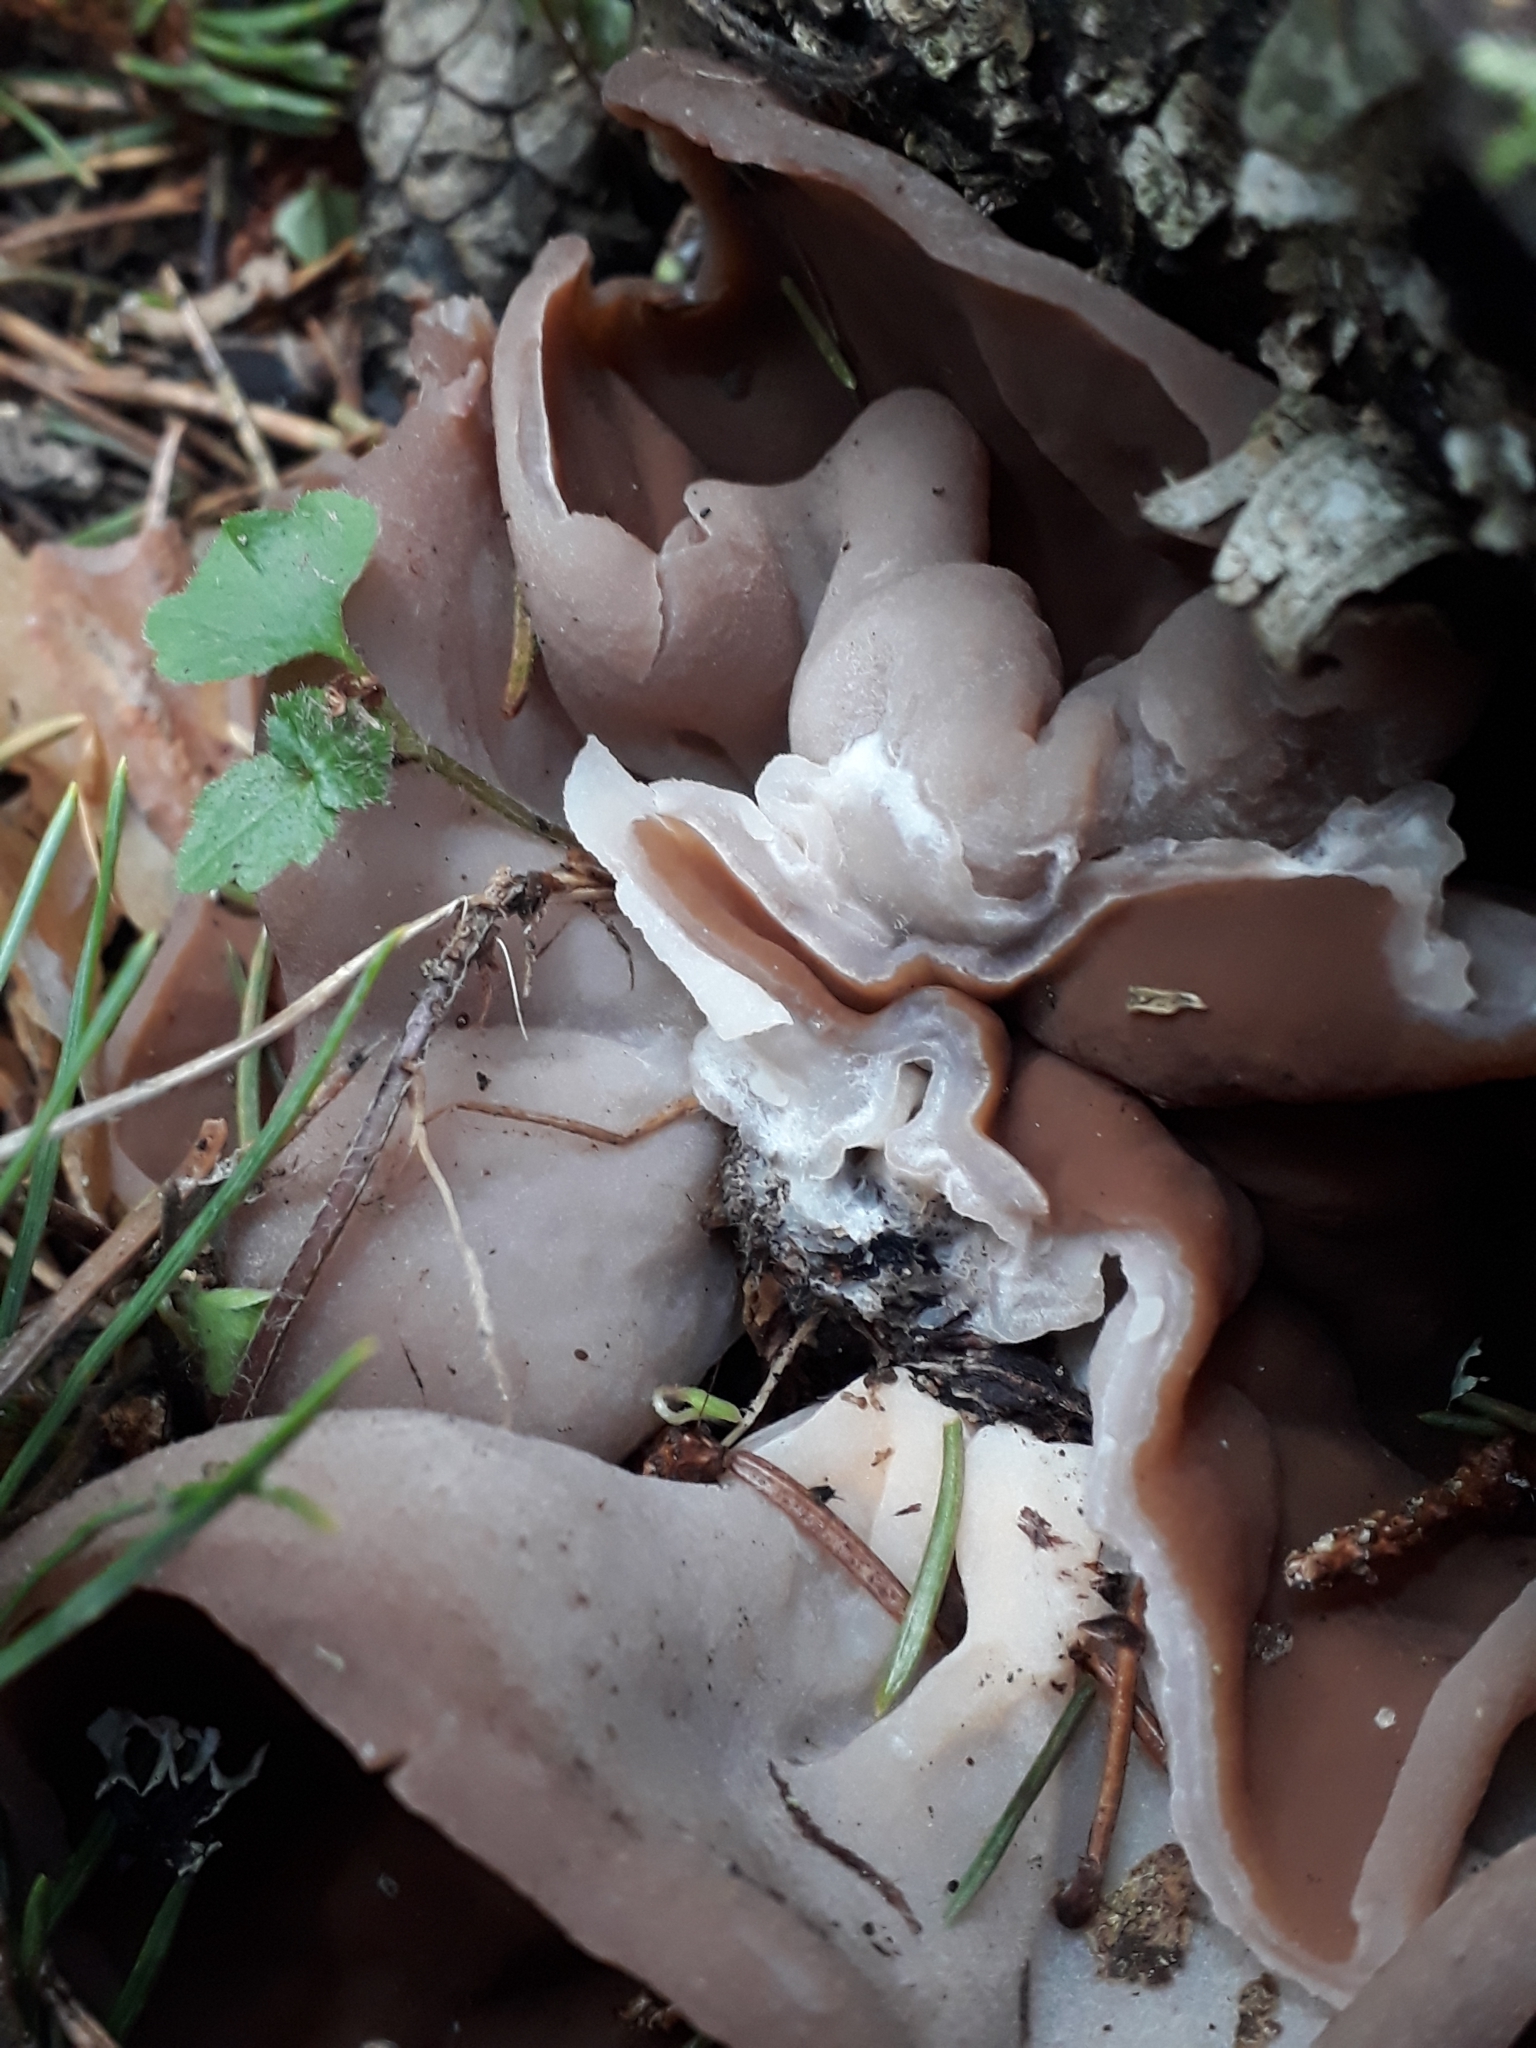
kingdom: Fungi
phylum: Ascomycota
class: Pezizomycetes
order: Pezizales
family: Pezizaceae
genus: Phylloscypha
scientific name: Phylloscypha phyllogena
